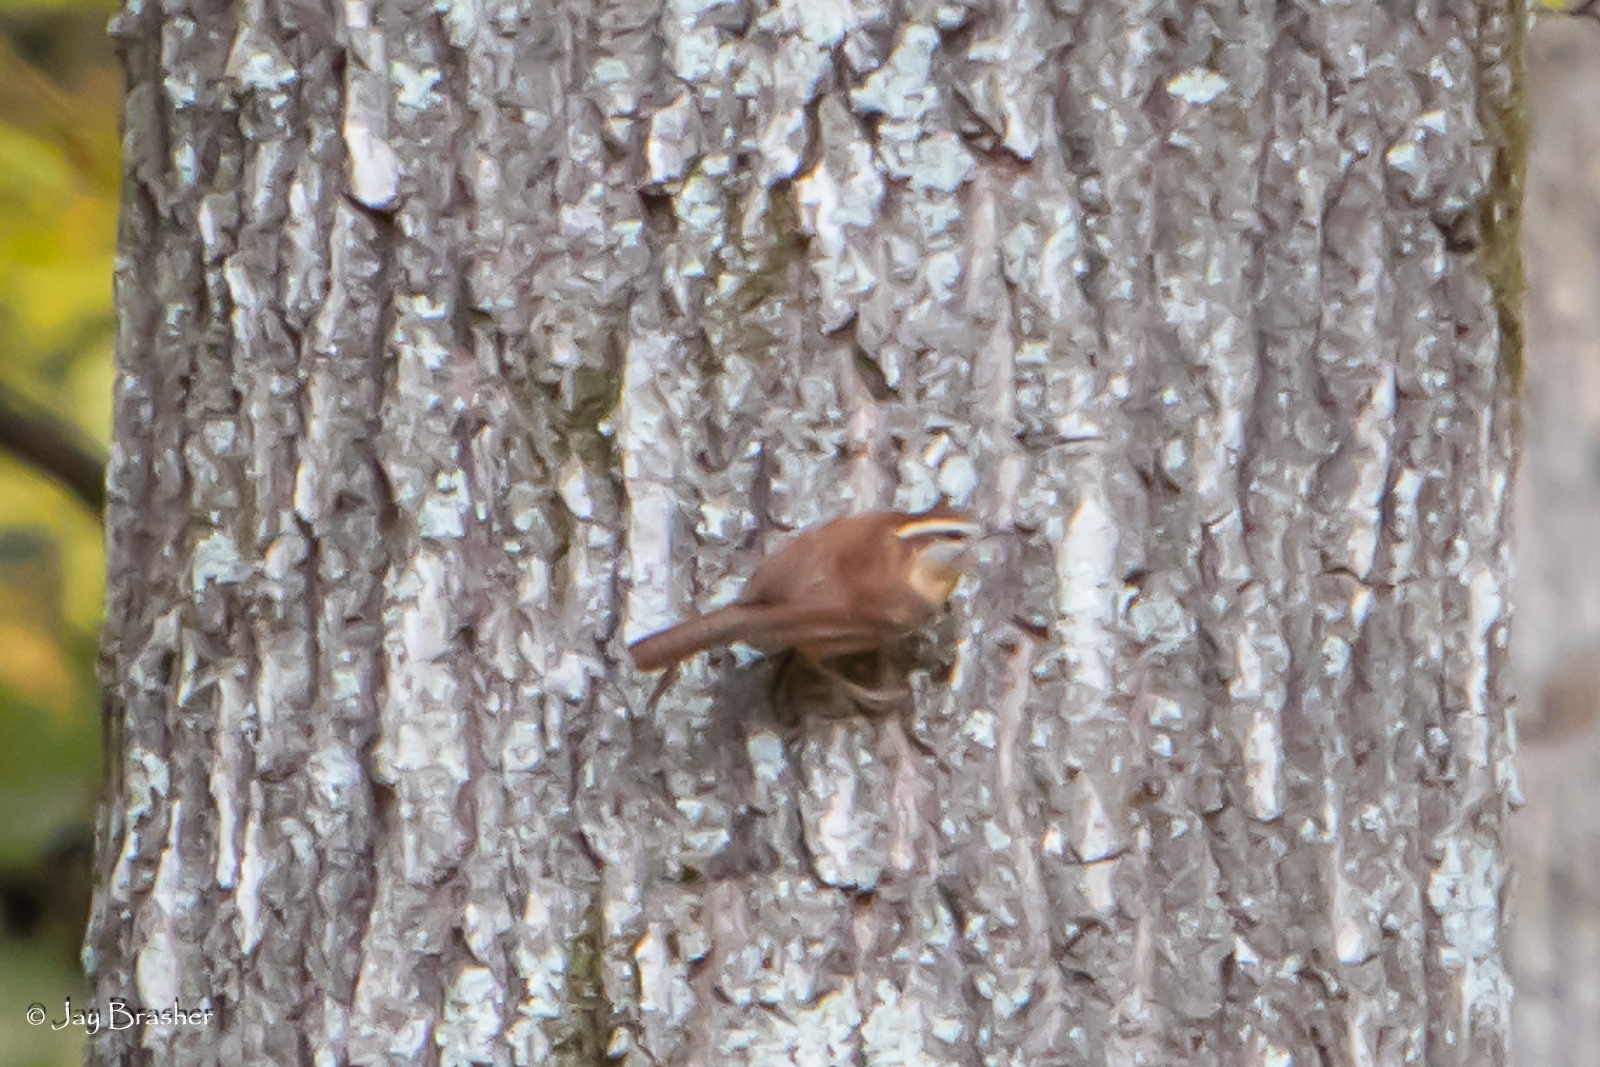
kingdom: Animalia
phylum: Chordata
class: Aves
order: Passeriformes
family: Troglodytidae
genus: Thryothorus
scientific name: Thryothorus ludovicianus
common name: Carolina wren
